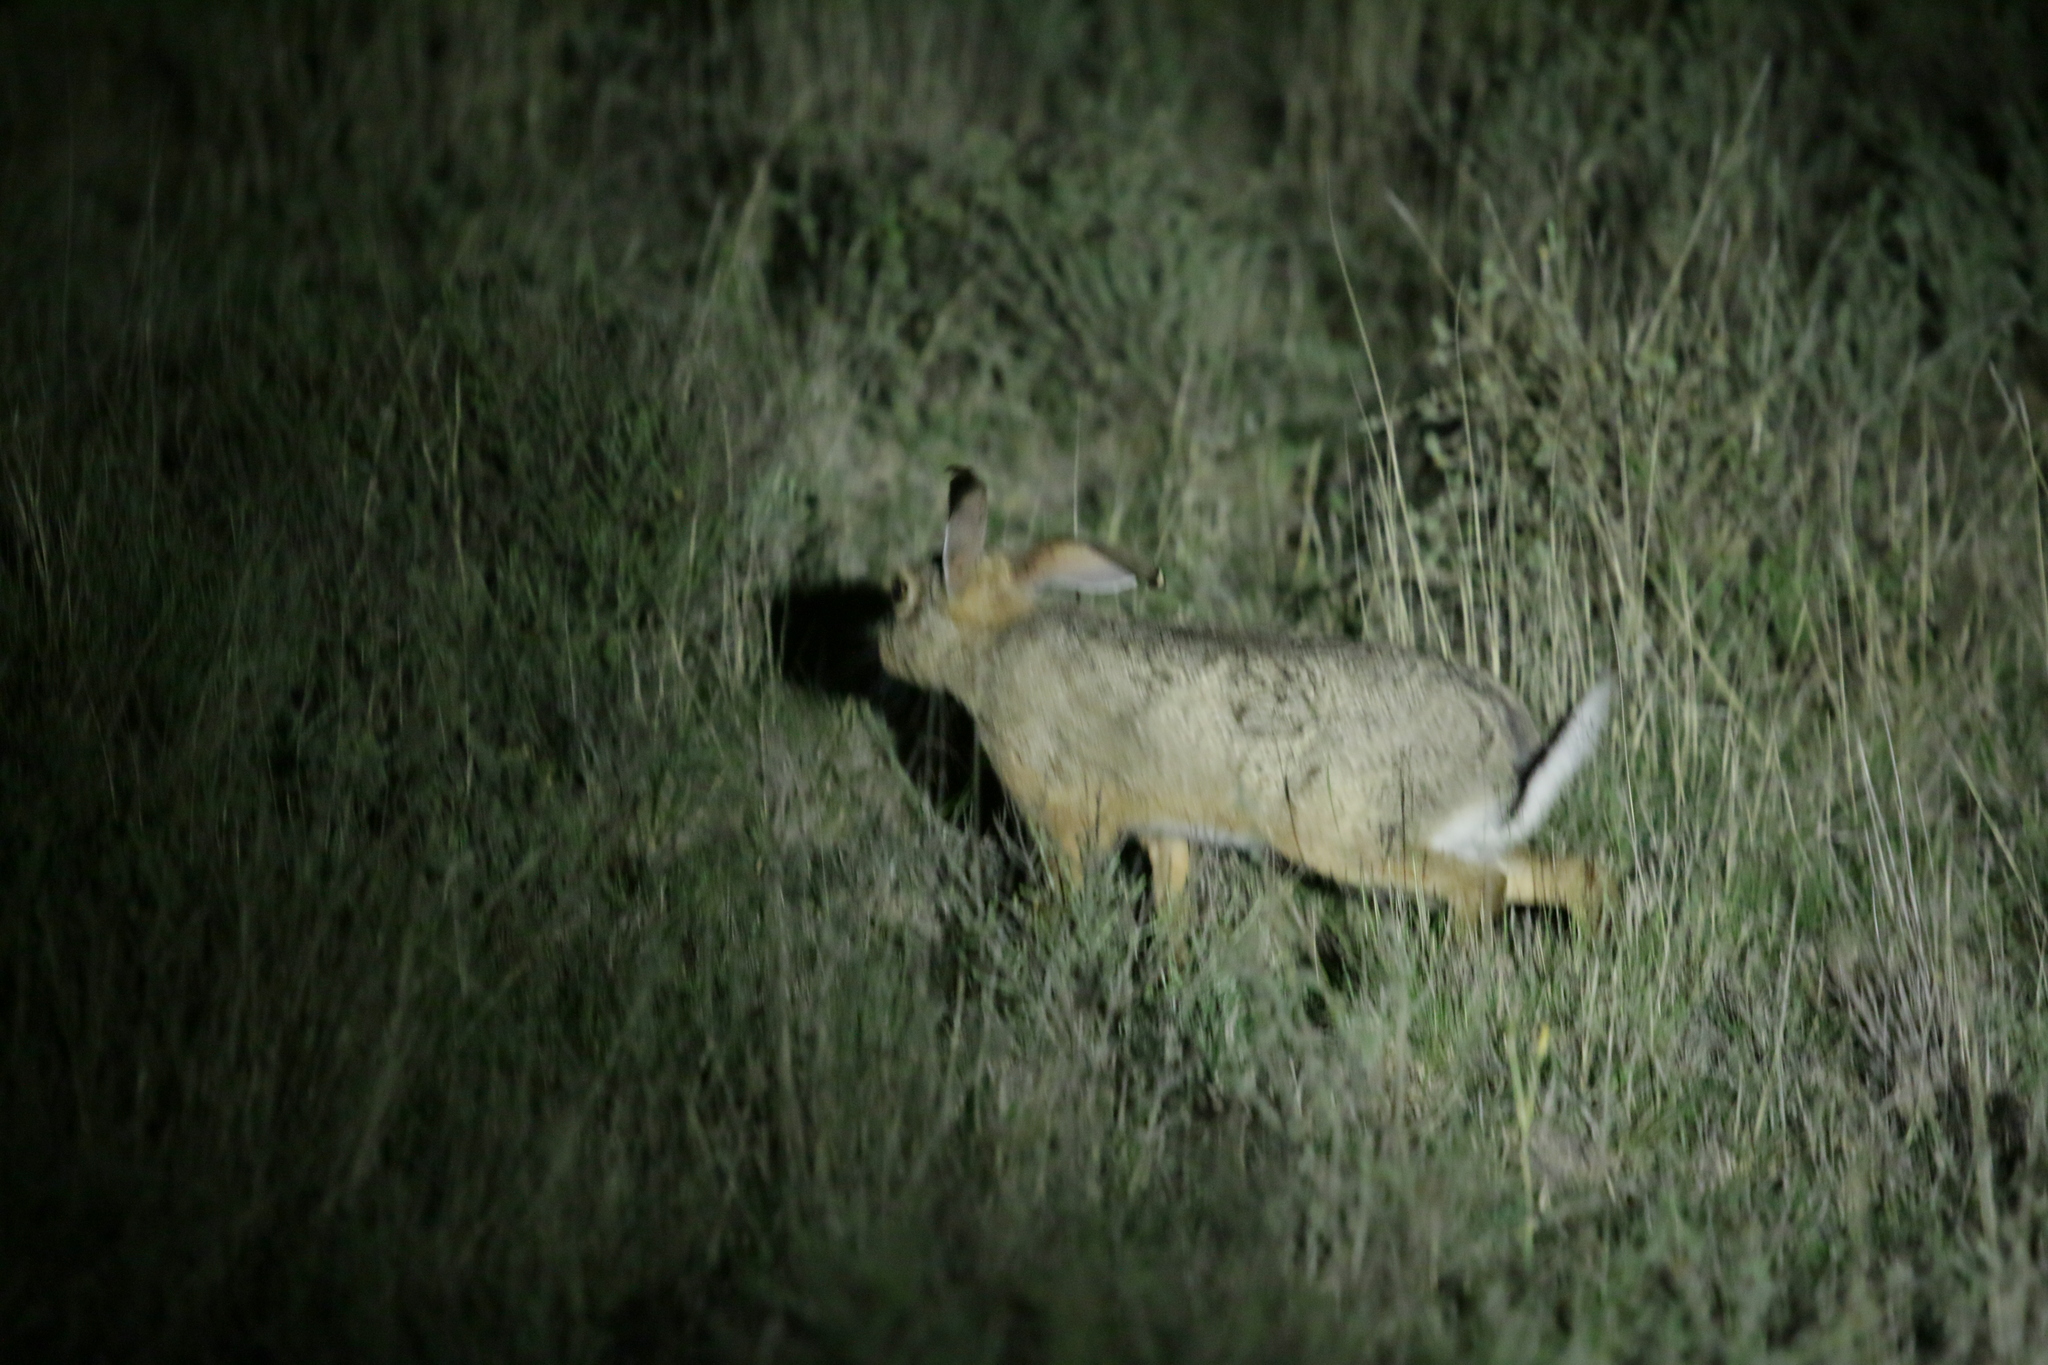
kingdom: Animalia
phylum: Chordata
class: Mammalia
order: Lagomorpha
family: Leporidae
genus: Lepus
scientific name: Lepus capensis
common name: Cape hare
